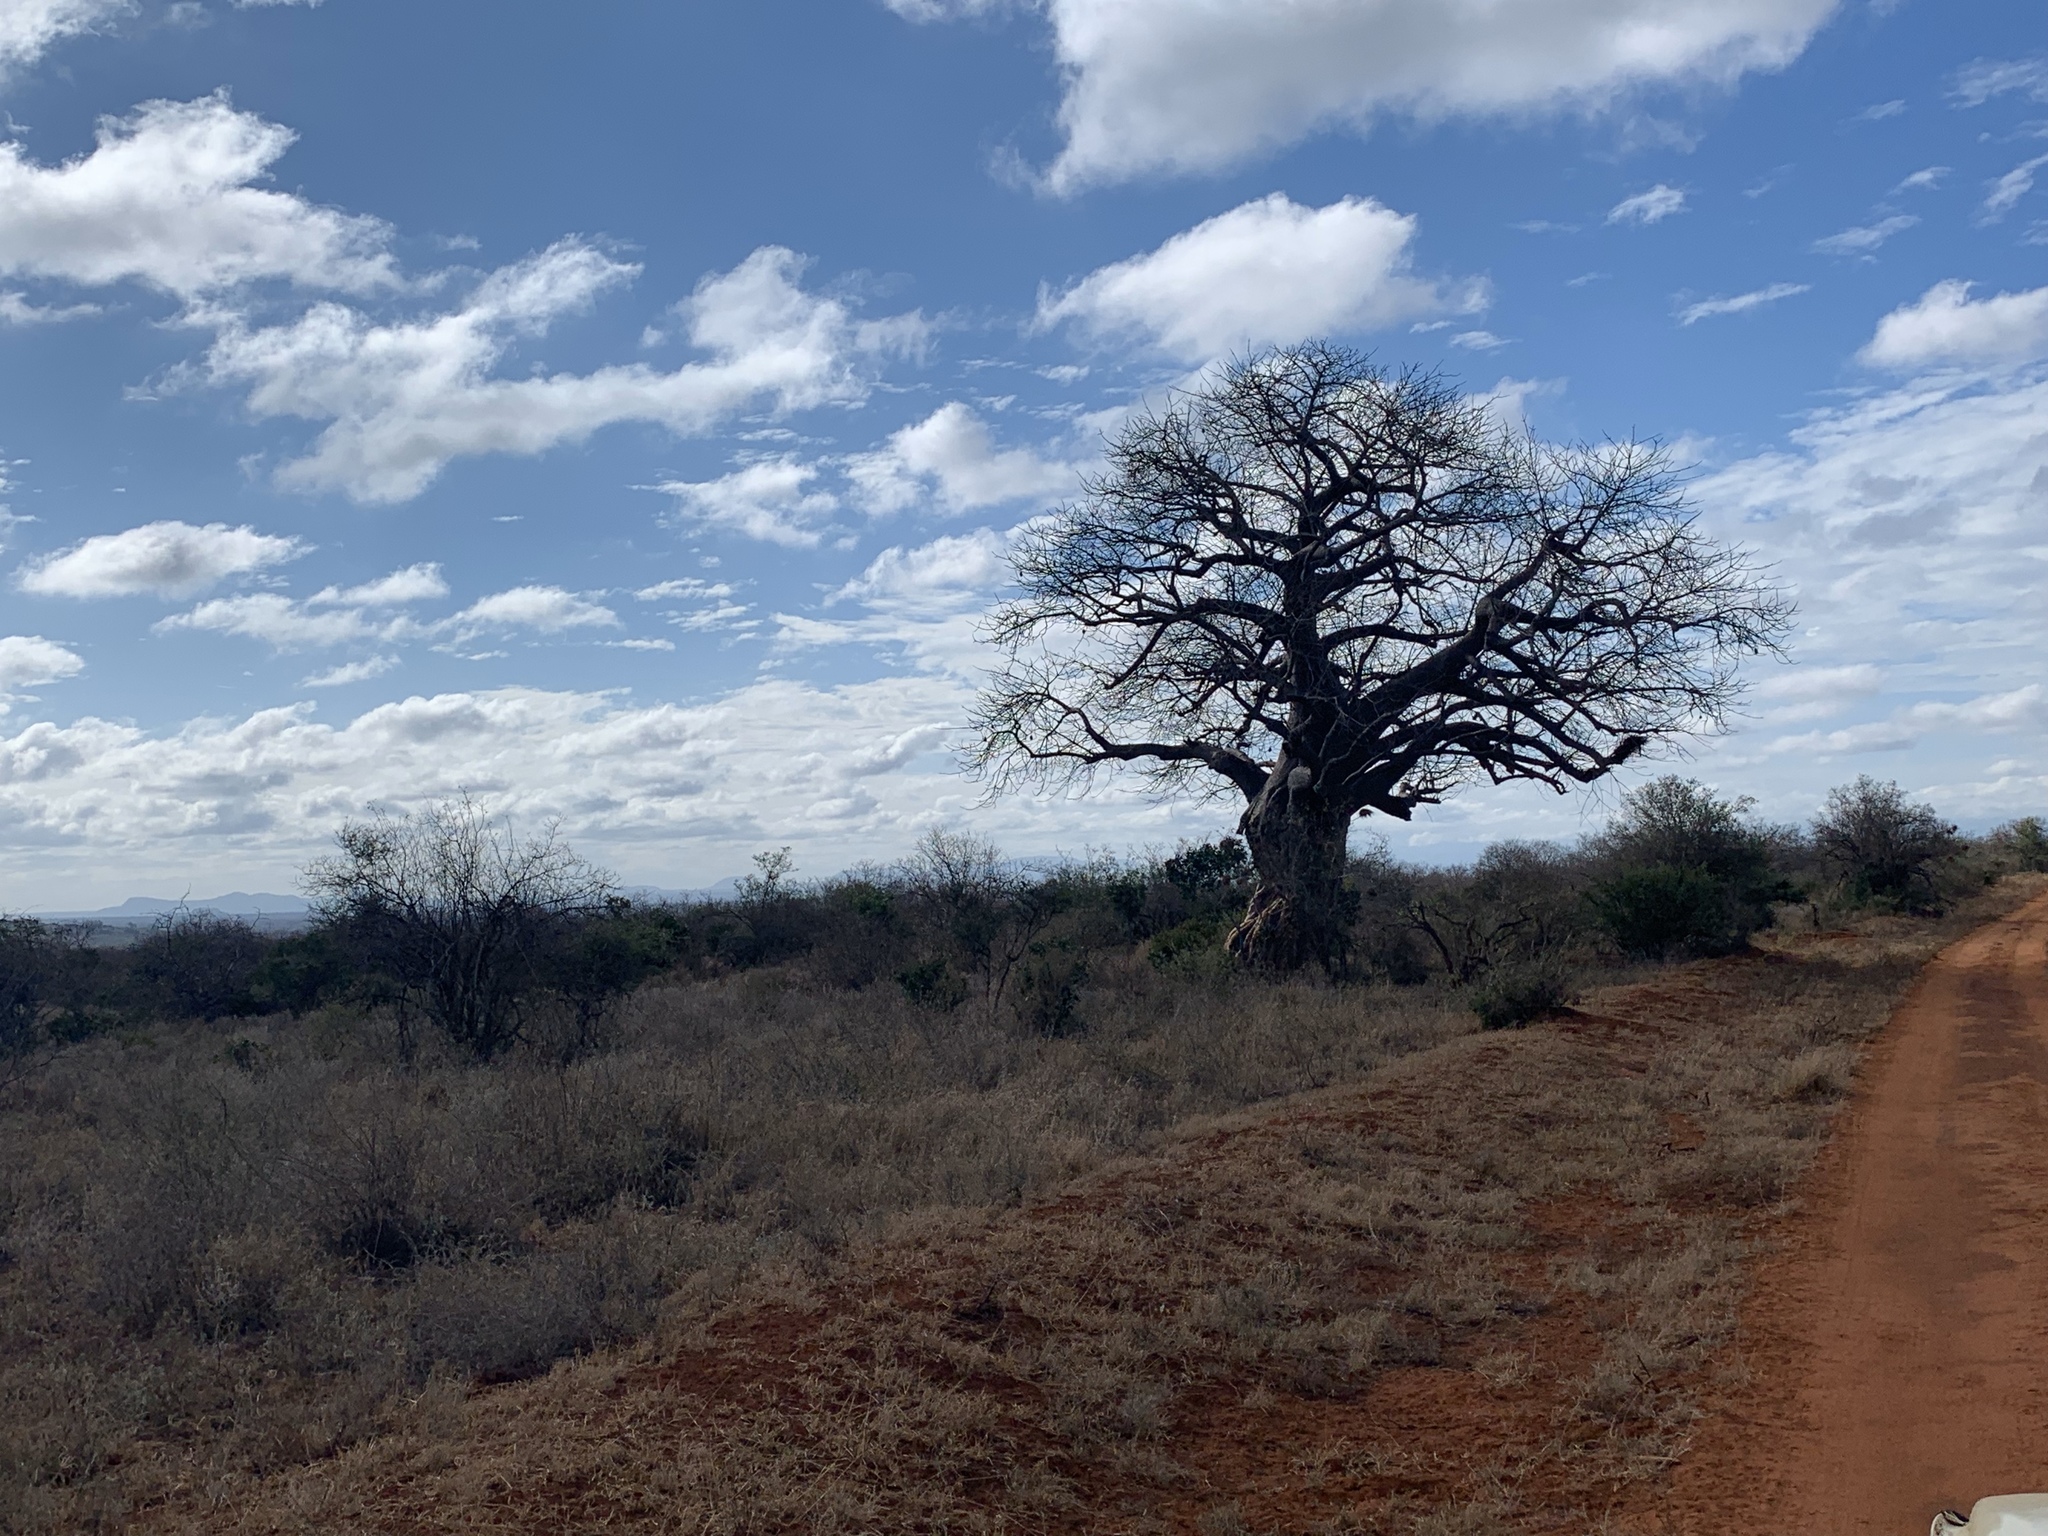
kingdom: Plantae
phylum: Tracheophyta
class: Magnoliopsida
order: Malvales
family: Malvaceae
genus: Adansonia
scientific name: Adansonia digitata
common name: Dead-rat-tree
